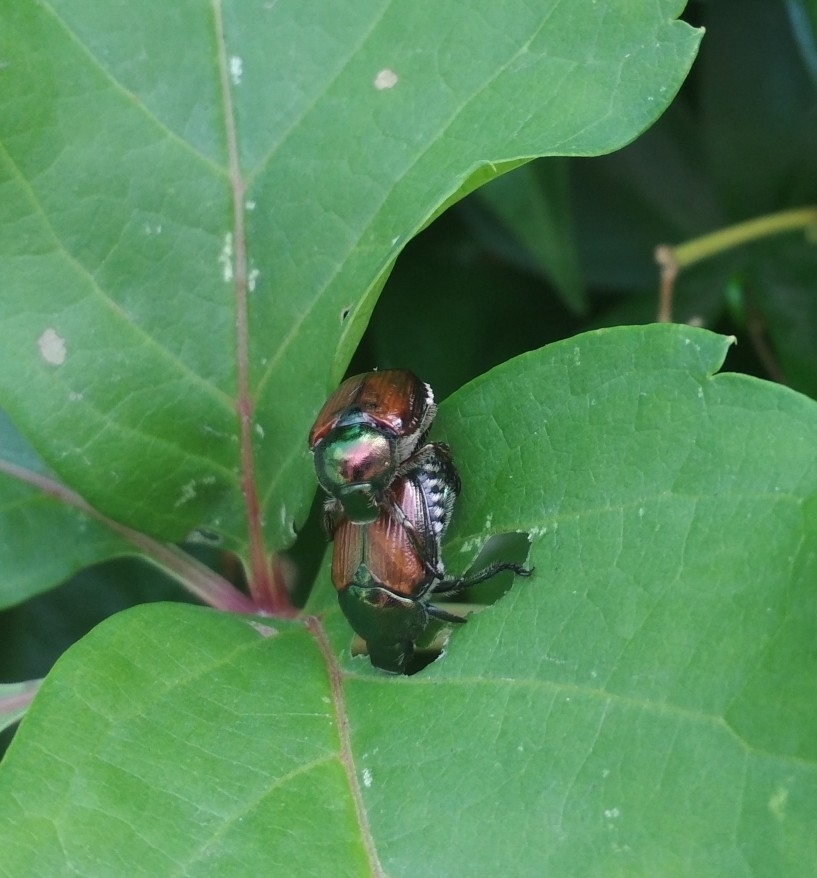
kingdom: Animalia
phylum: Arthropoda
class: Insecta
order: Coleoptera
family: Scarabaeidae
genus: Popillia
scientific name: Popillia japonica
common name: Japanese beetle
